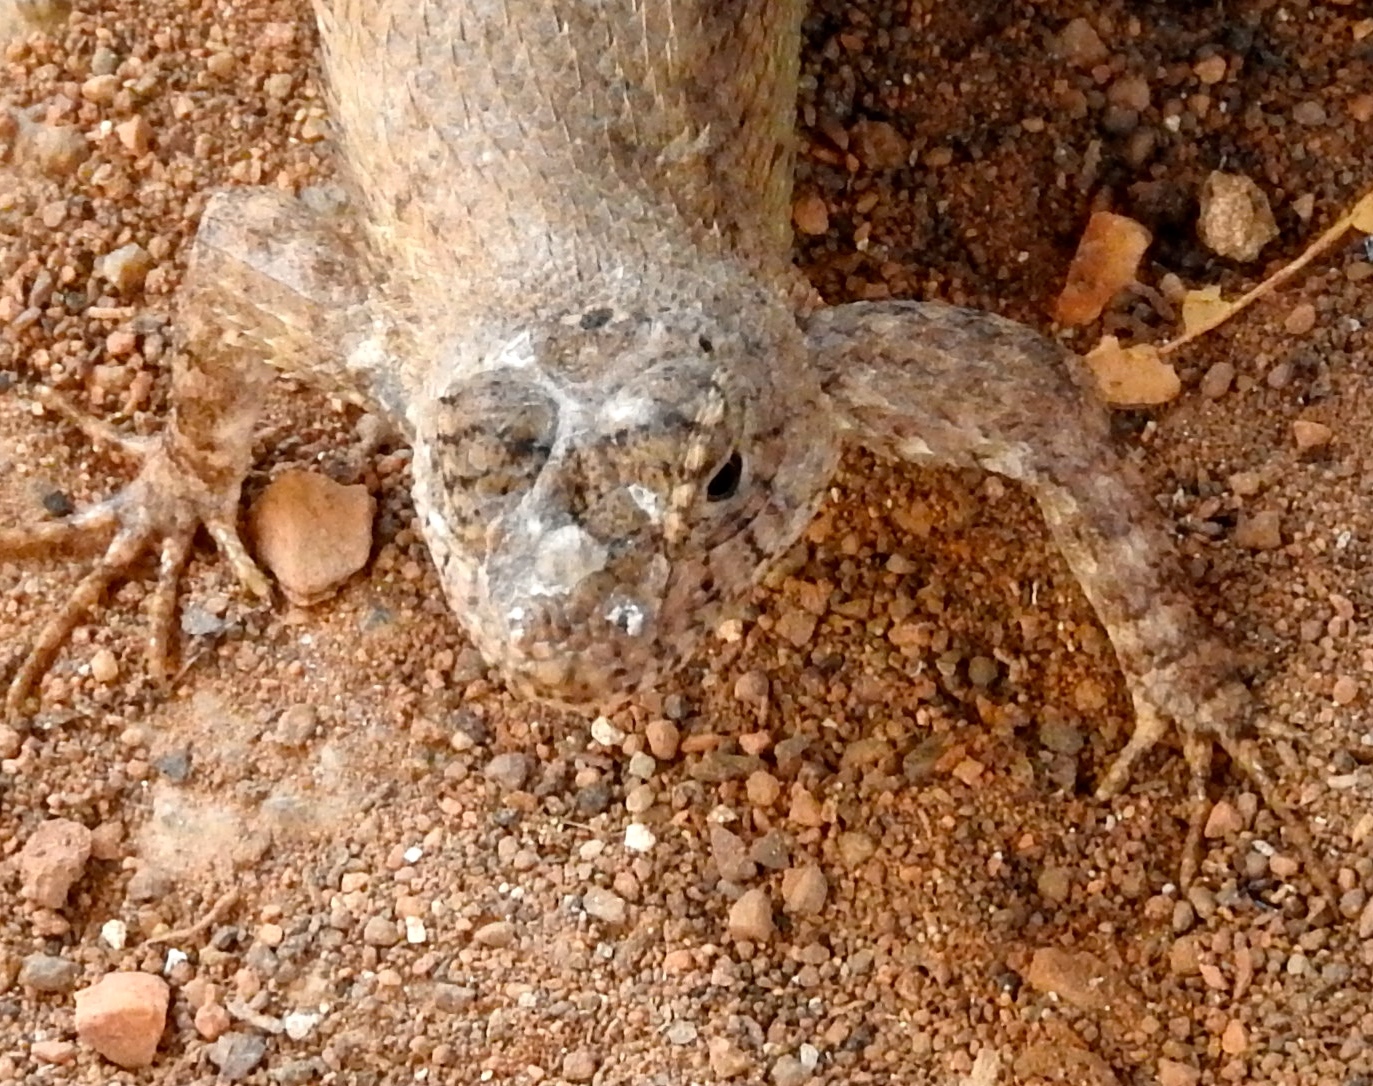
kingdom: Animalia
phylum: Chordata
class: Squamata
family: Phrynosomatidae
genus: Sceloporus
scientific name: Sceloporus nelsoni
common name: Nelson's spiny lizard
